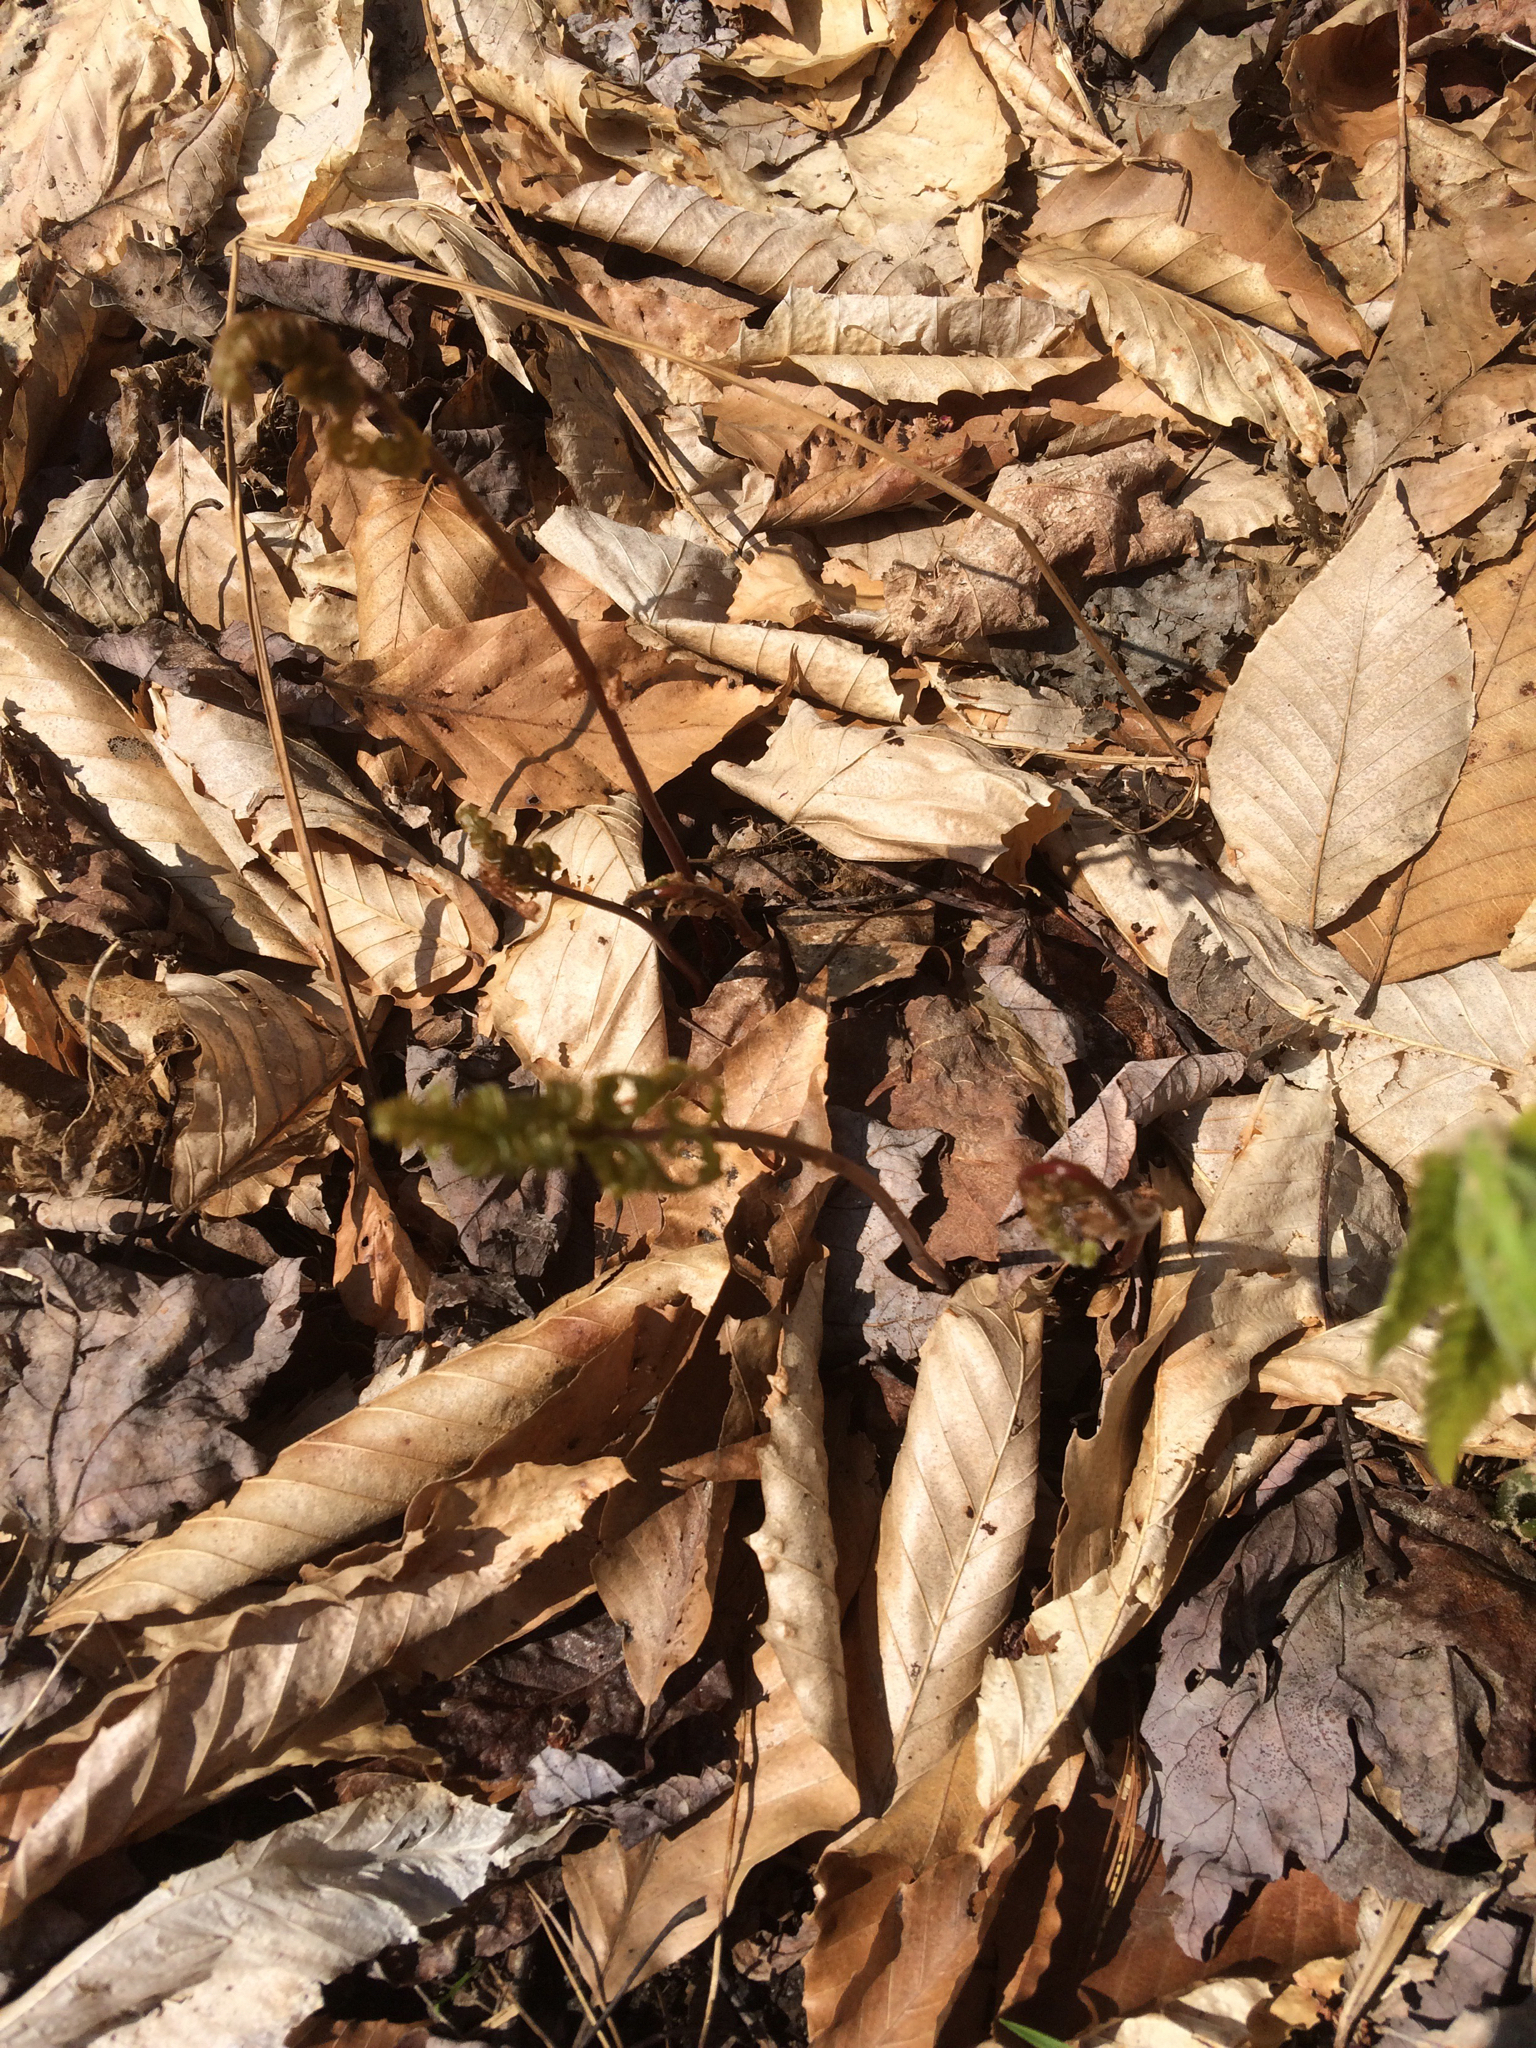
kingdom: Plantae
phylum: Tracheophyta
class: Polypodiopsida
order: Polypodiales
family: Onocleaceae
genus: Onoclea
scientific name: Onoclea sensibilis
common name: Sensitive fern
